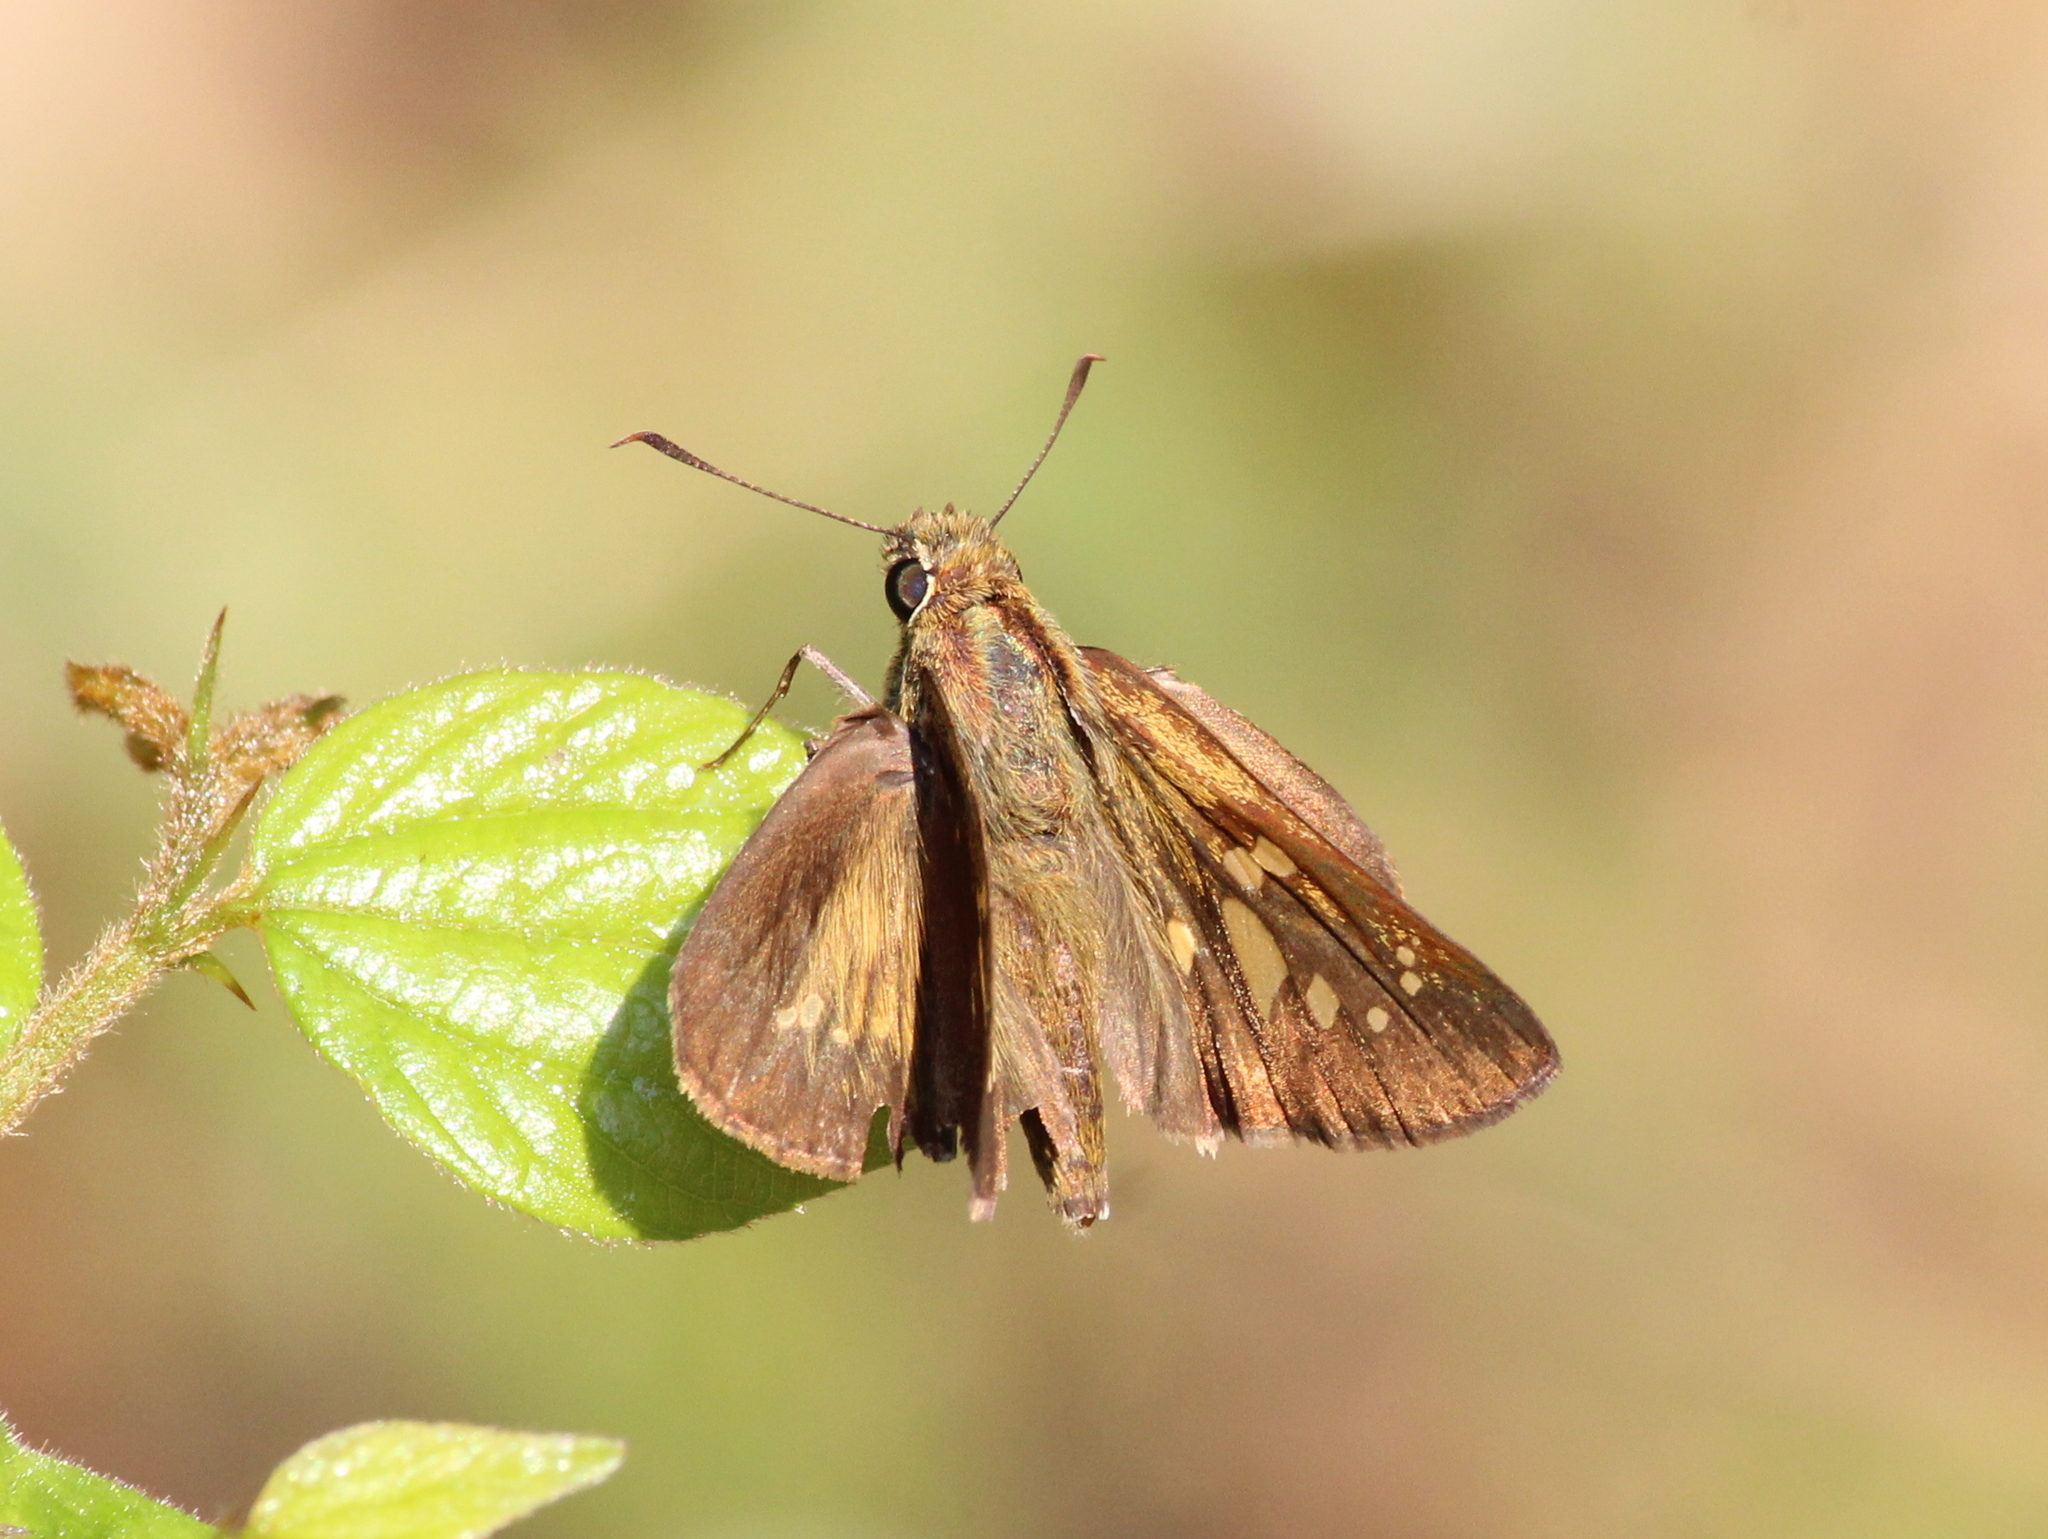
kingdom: Animalia
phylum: Arthropoda
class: Insecta
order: Lepidoptera
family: Hesperiidae
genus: Polytremis
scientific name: Polytremis lubricans
